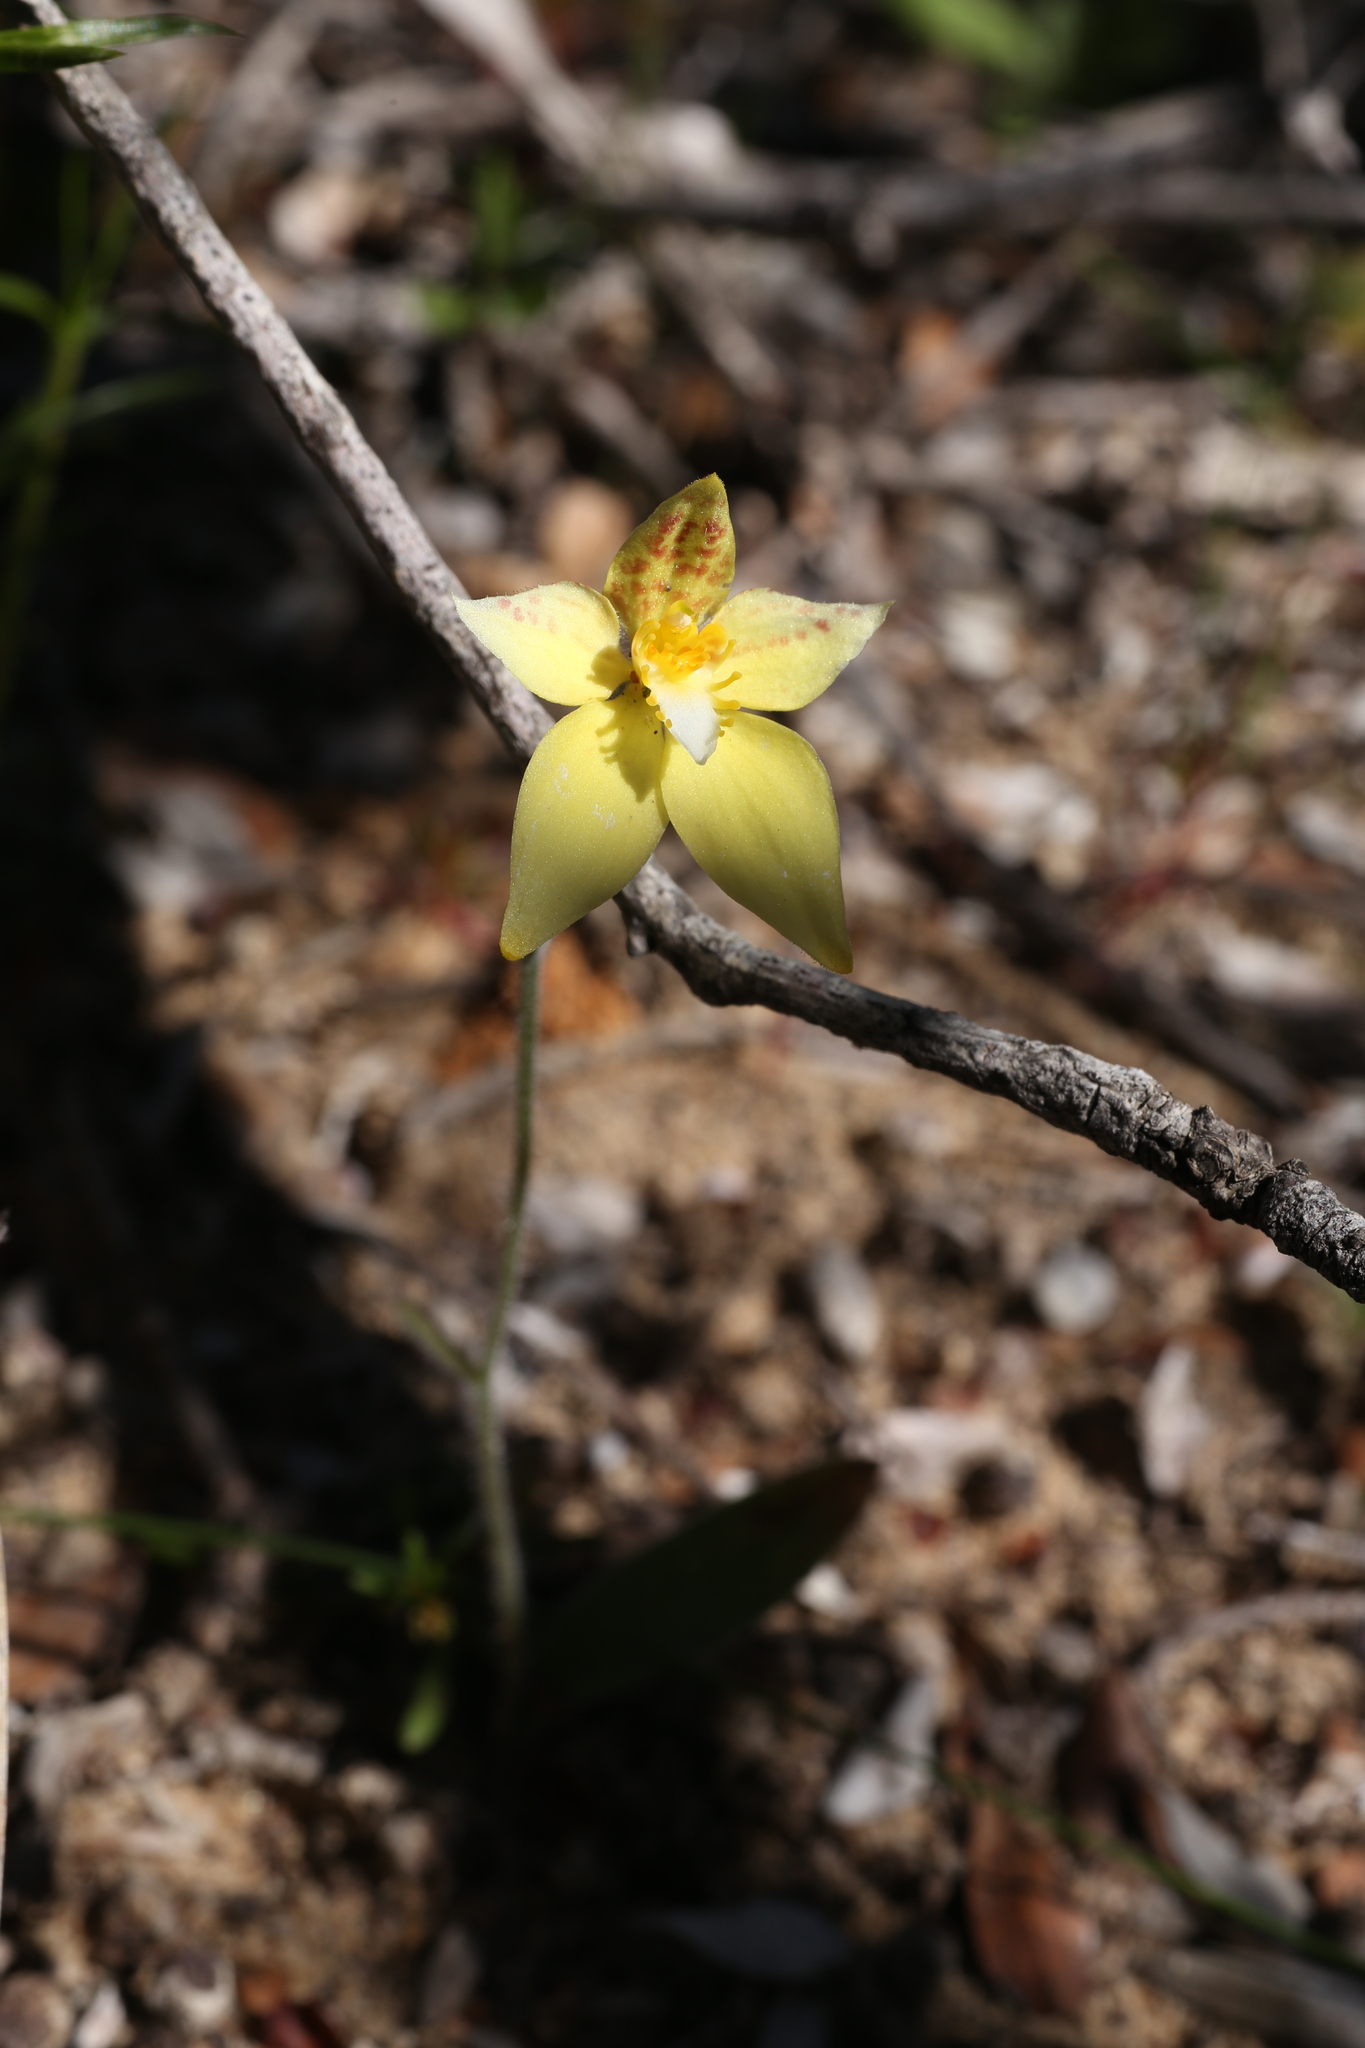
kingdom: Plantae
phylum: Tracheophyta
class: Liliopsida
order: Asparagales
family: Orchidaceae
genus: Caladenia
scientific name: Caladenia flava
